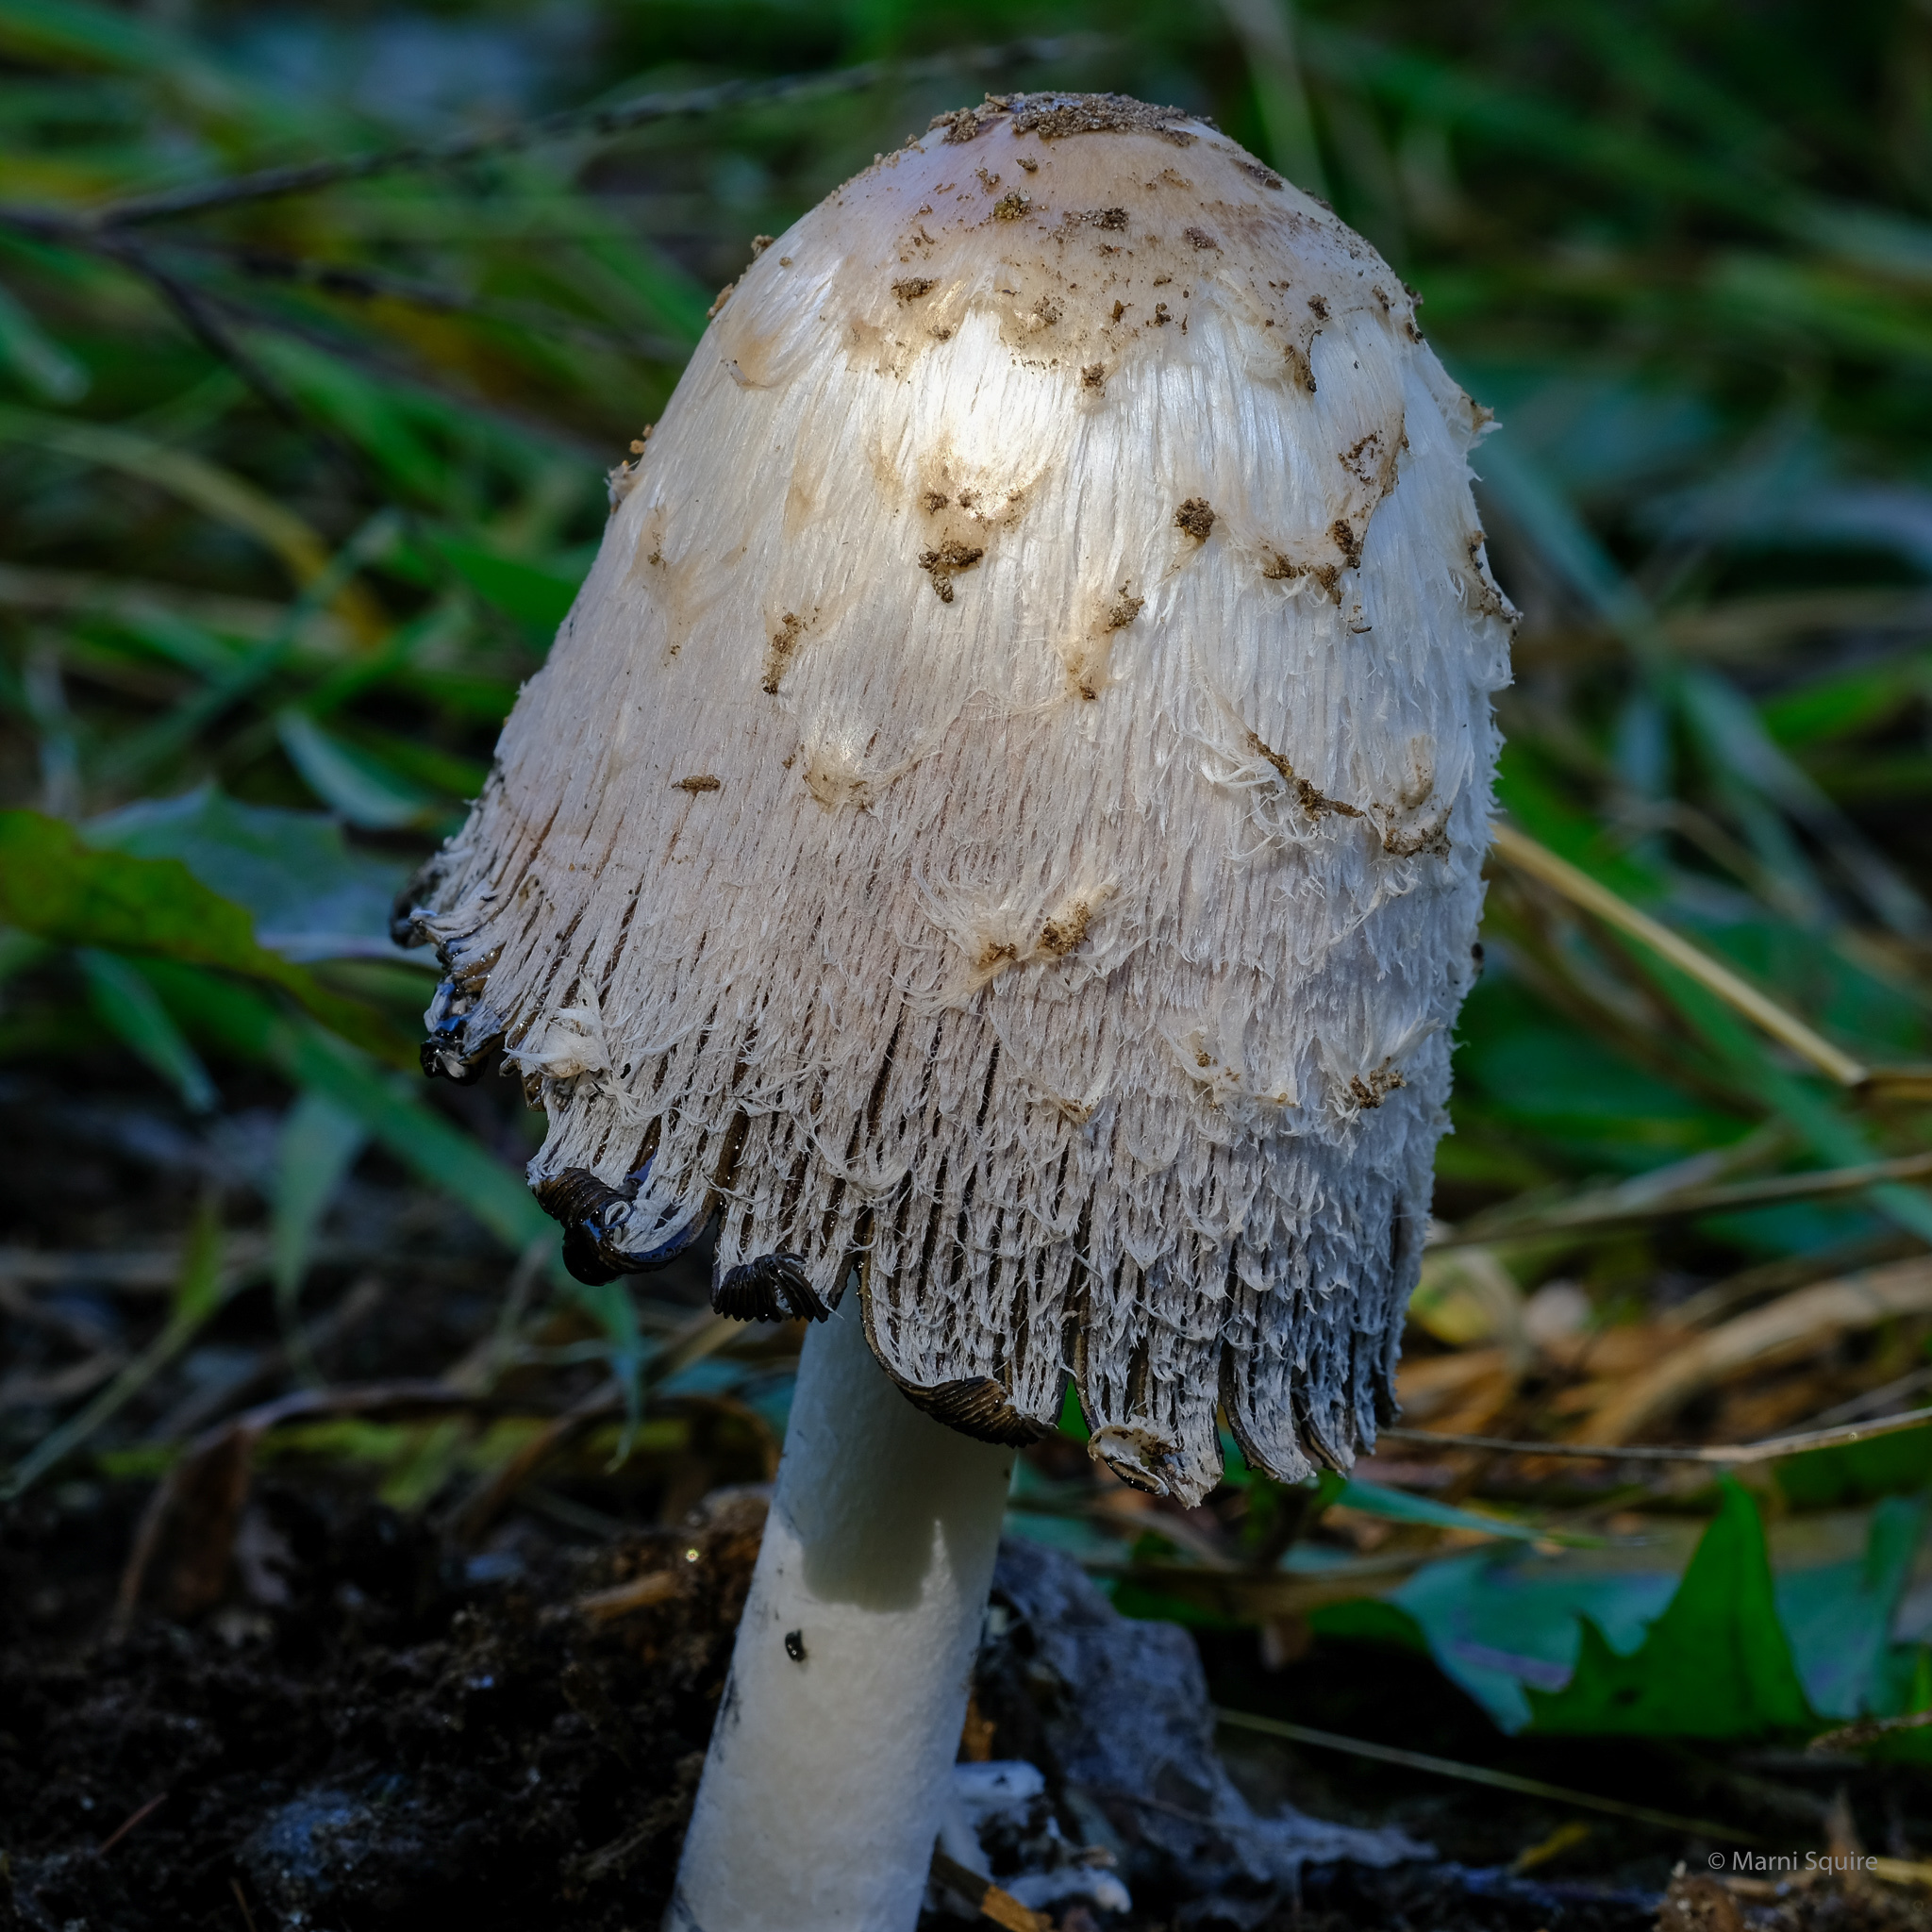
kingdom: Fungi
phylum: Basidiomycota
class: Agaricomycetes
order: Agaricales
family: Agaricaceae
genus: Coprinus
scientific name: Coprinus comatus
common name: Lawyer's wig
